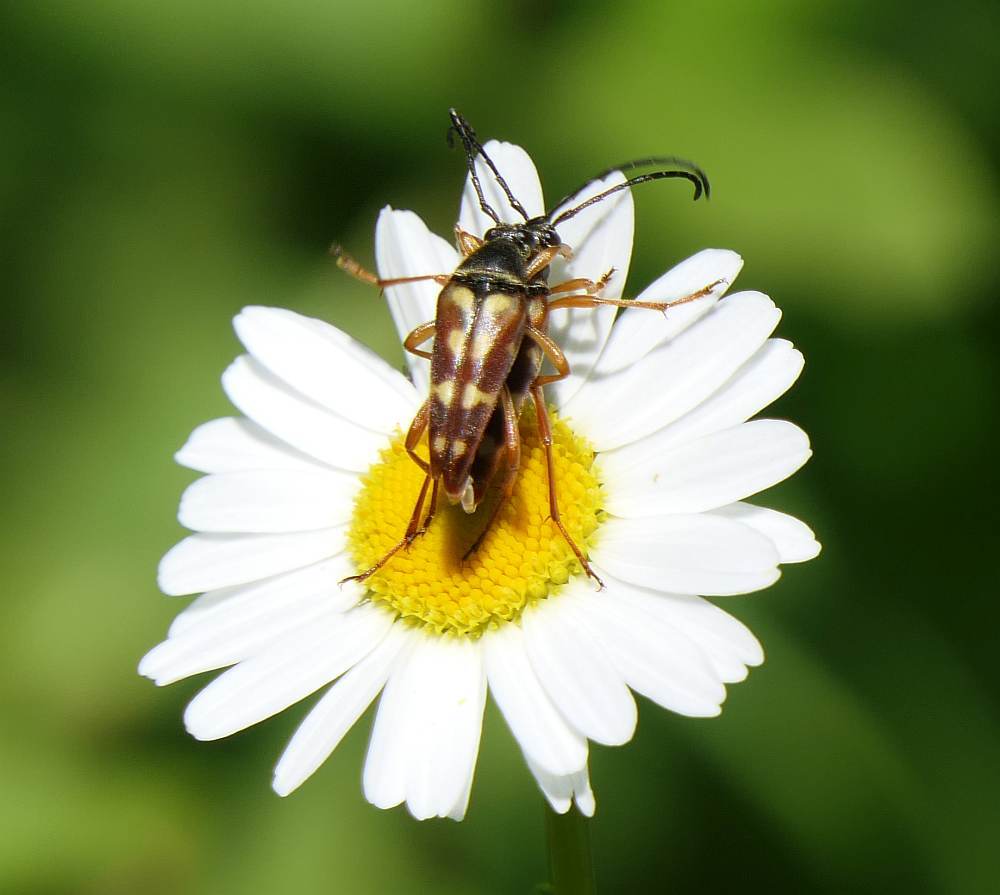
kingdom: Animalia
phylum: Arthropoda
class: Insecta
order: Coleoptera
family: Cerambycidae
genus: Typocerus
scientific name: Typocerus velutinus
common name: Banded longhorn beetle
